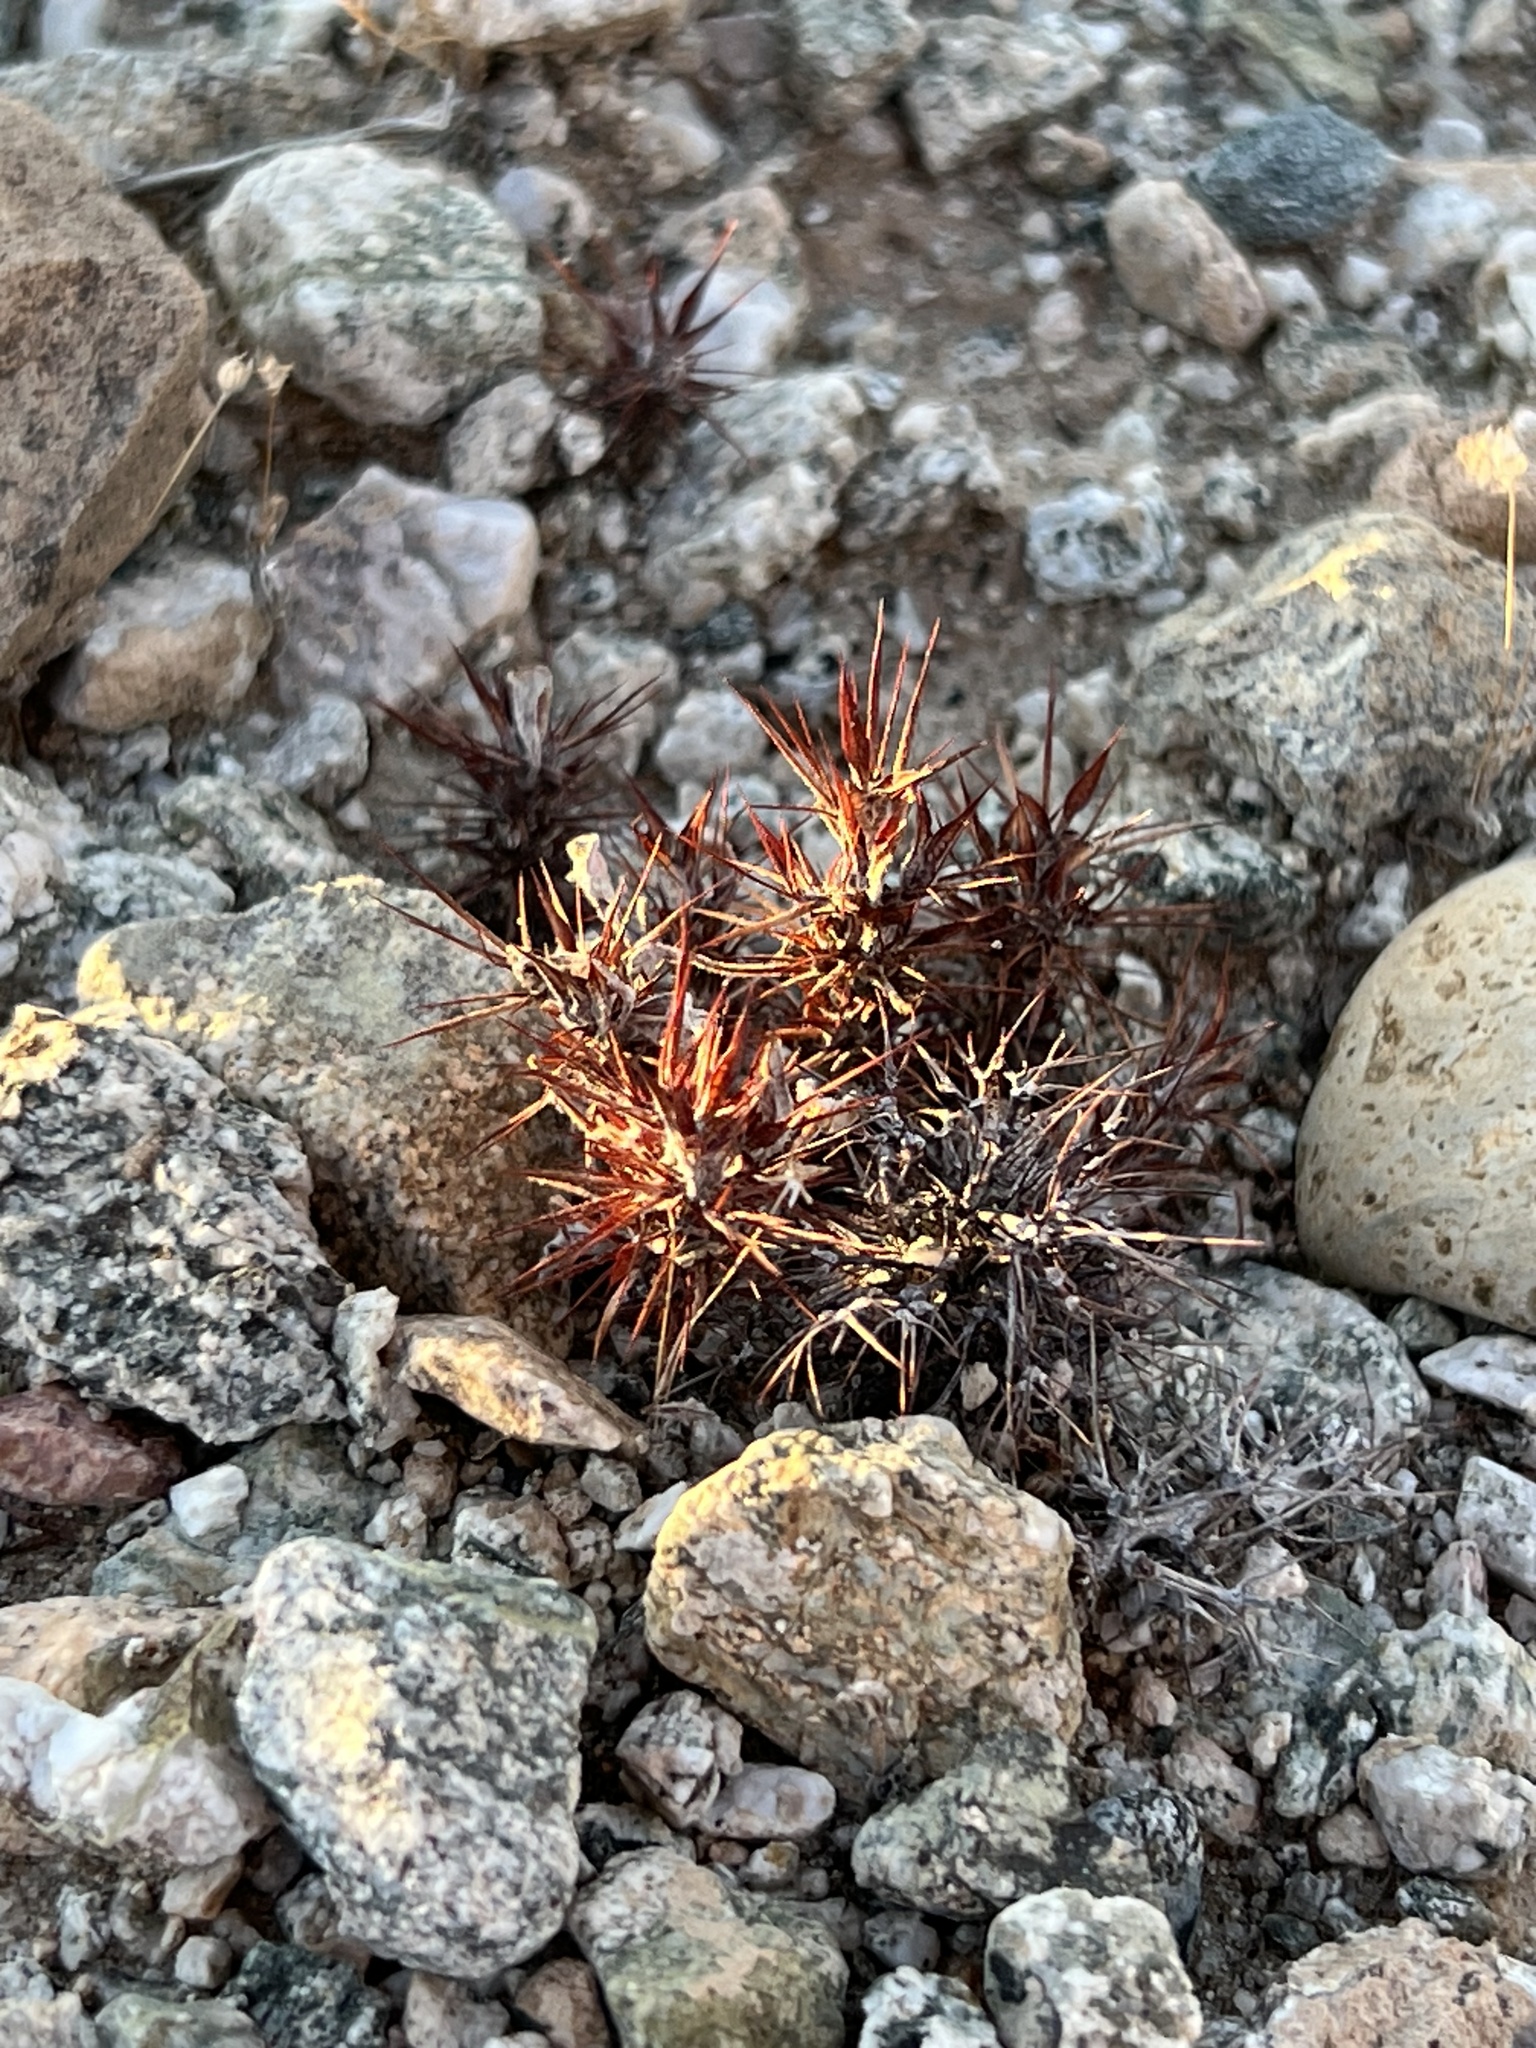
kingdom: Plantae
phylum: Tracheophyta
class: Magnoliopsida
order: Caryophyllales
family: Polygonaceae
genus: Chorizanthe
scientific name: Chorizanthe rigida
